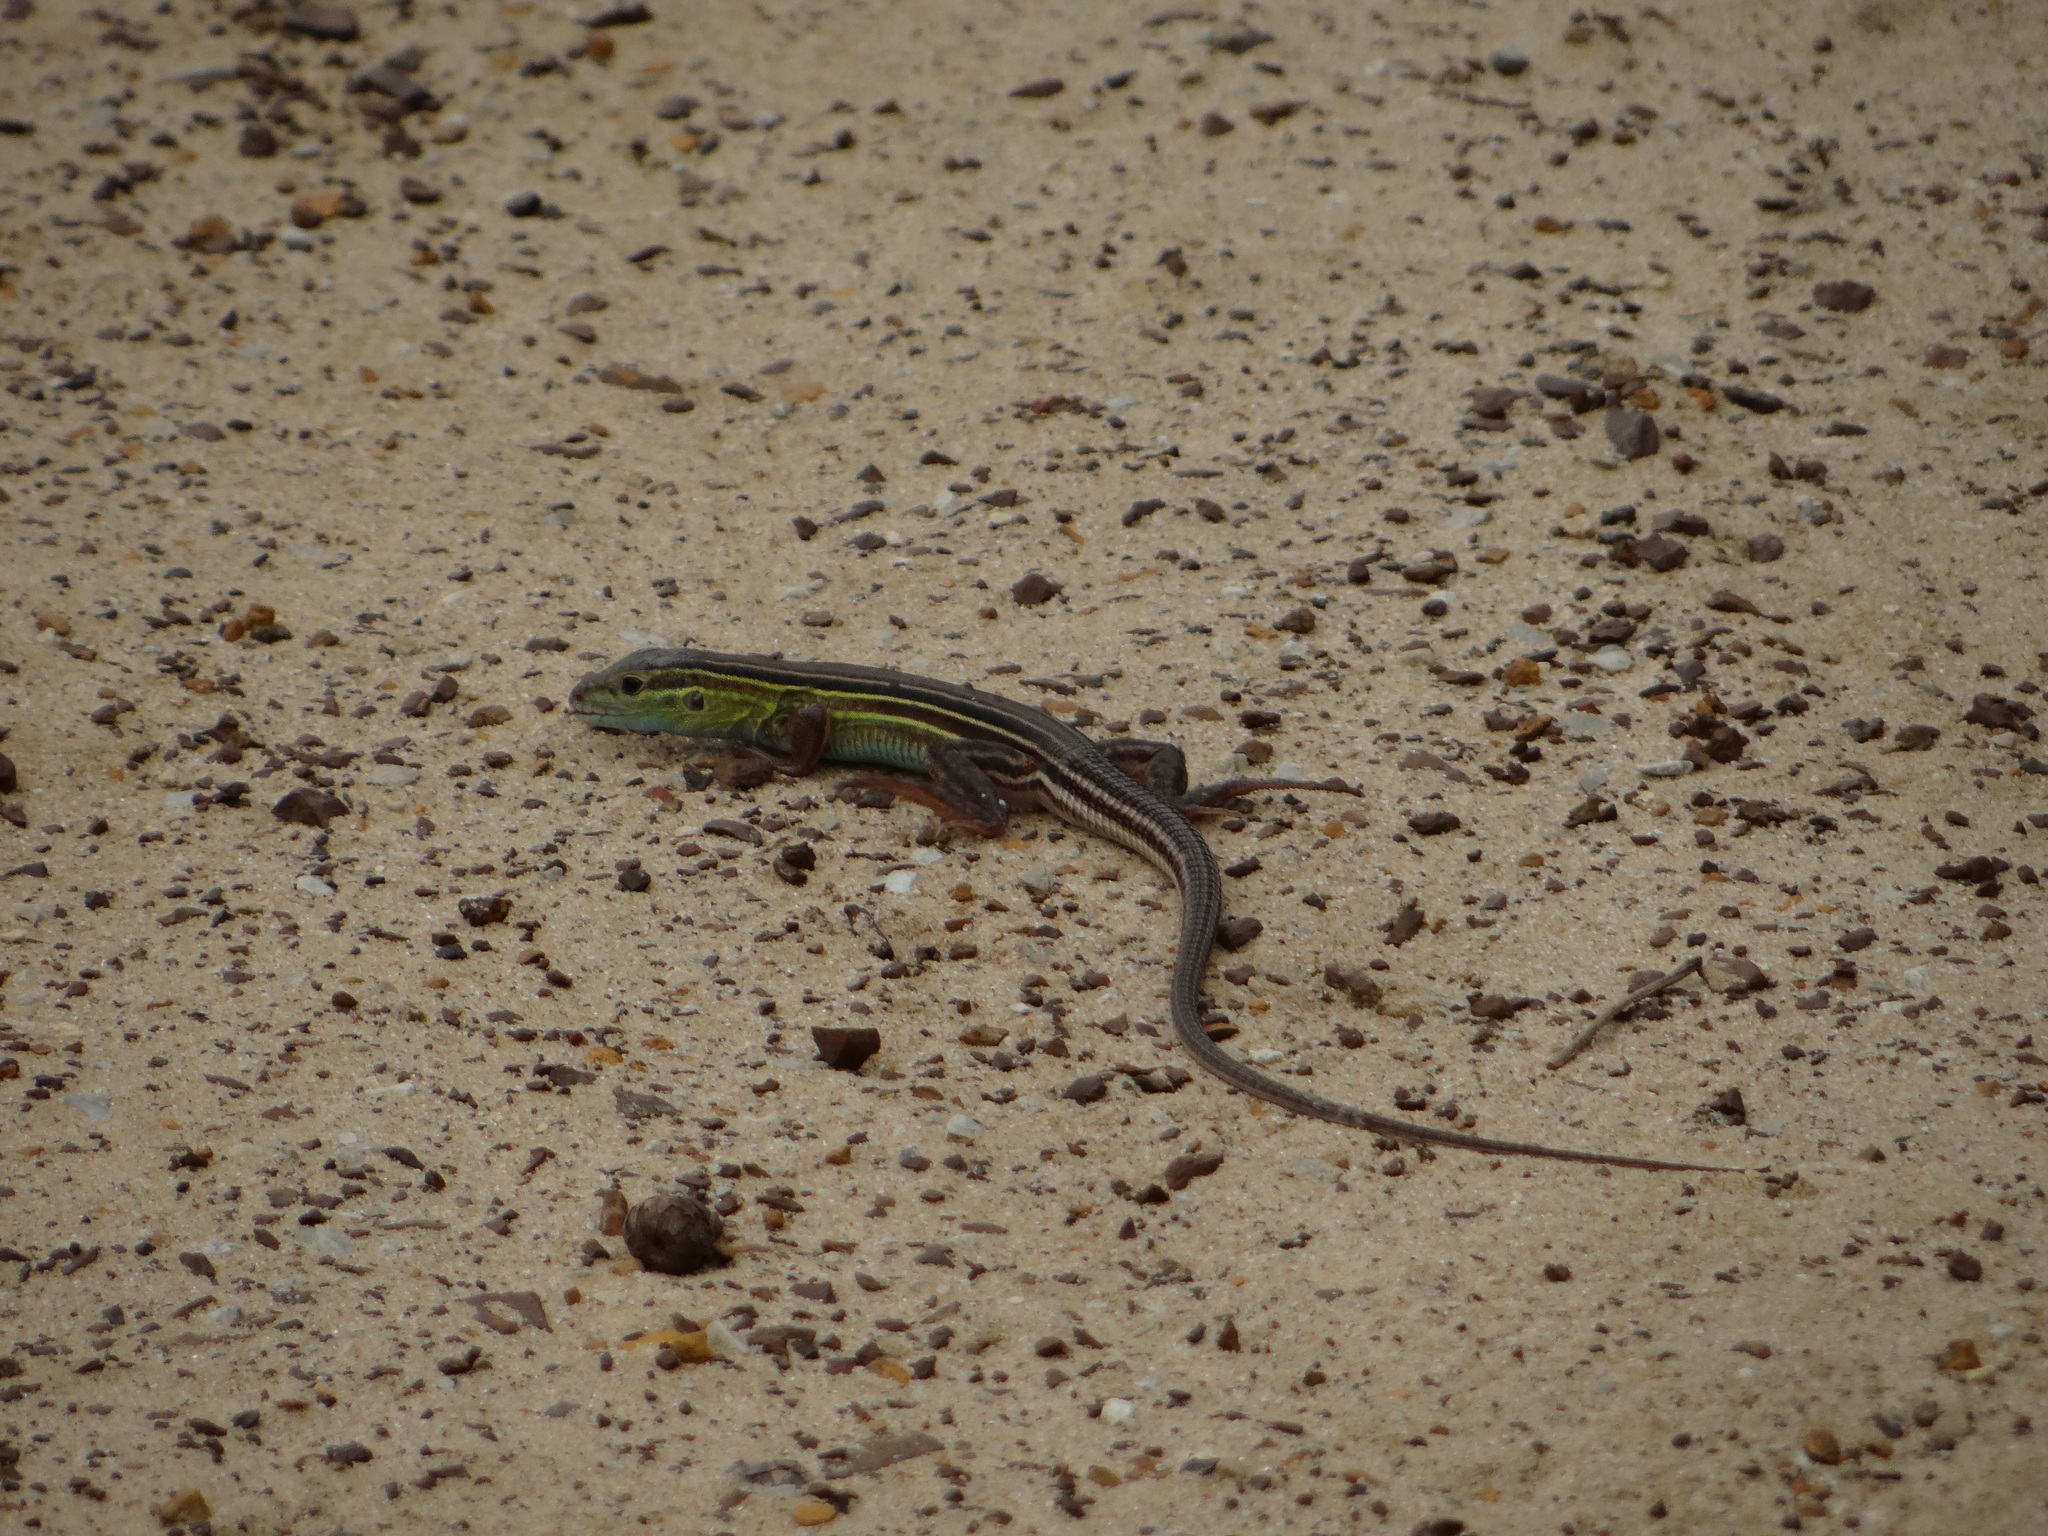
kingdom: Animalia
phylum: Chordata
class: Squamata
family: Teiidae
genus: Aspidoscelis
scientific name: Aspidoscelis sexlineatus
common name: Six-lined racerunner
